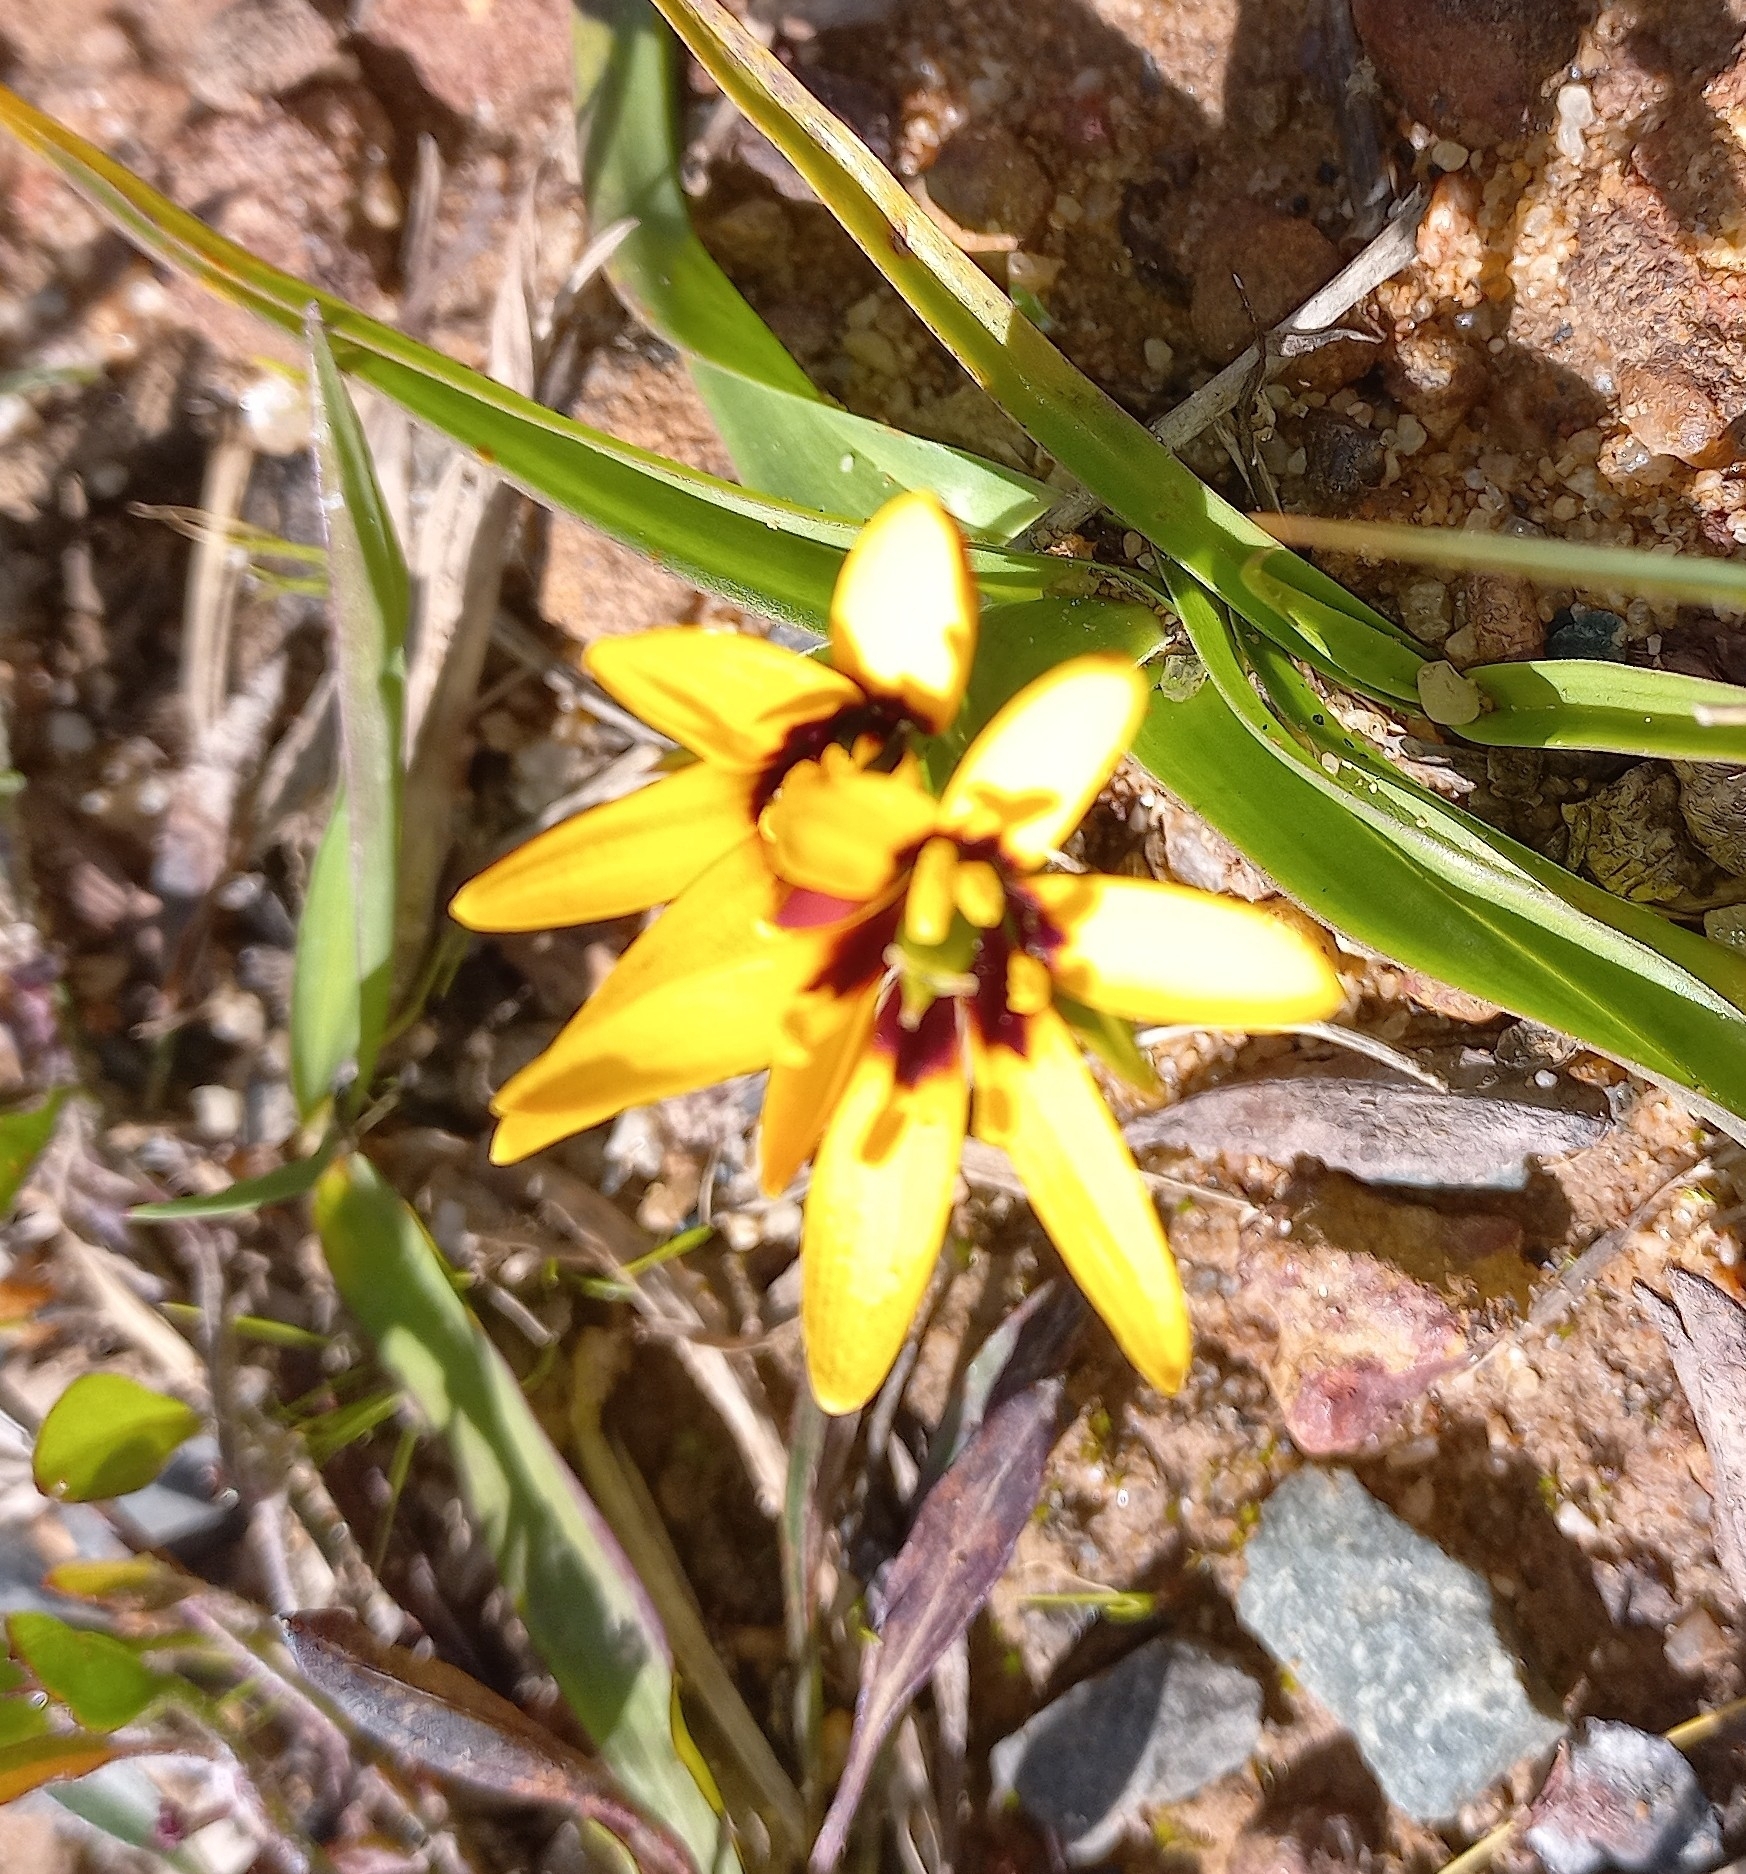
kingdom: Plantae
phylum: Tracheophyta
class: Liliopsida
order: Liliales
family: Colchicaceae
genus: Baeometra
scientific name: Baeometra uniflora
